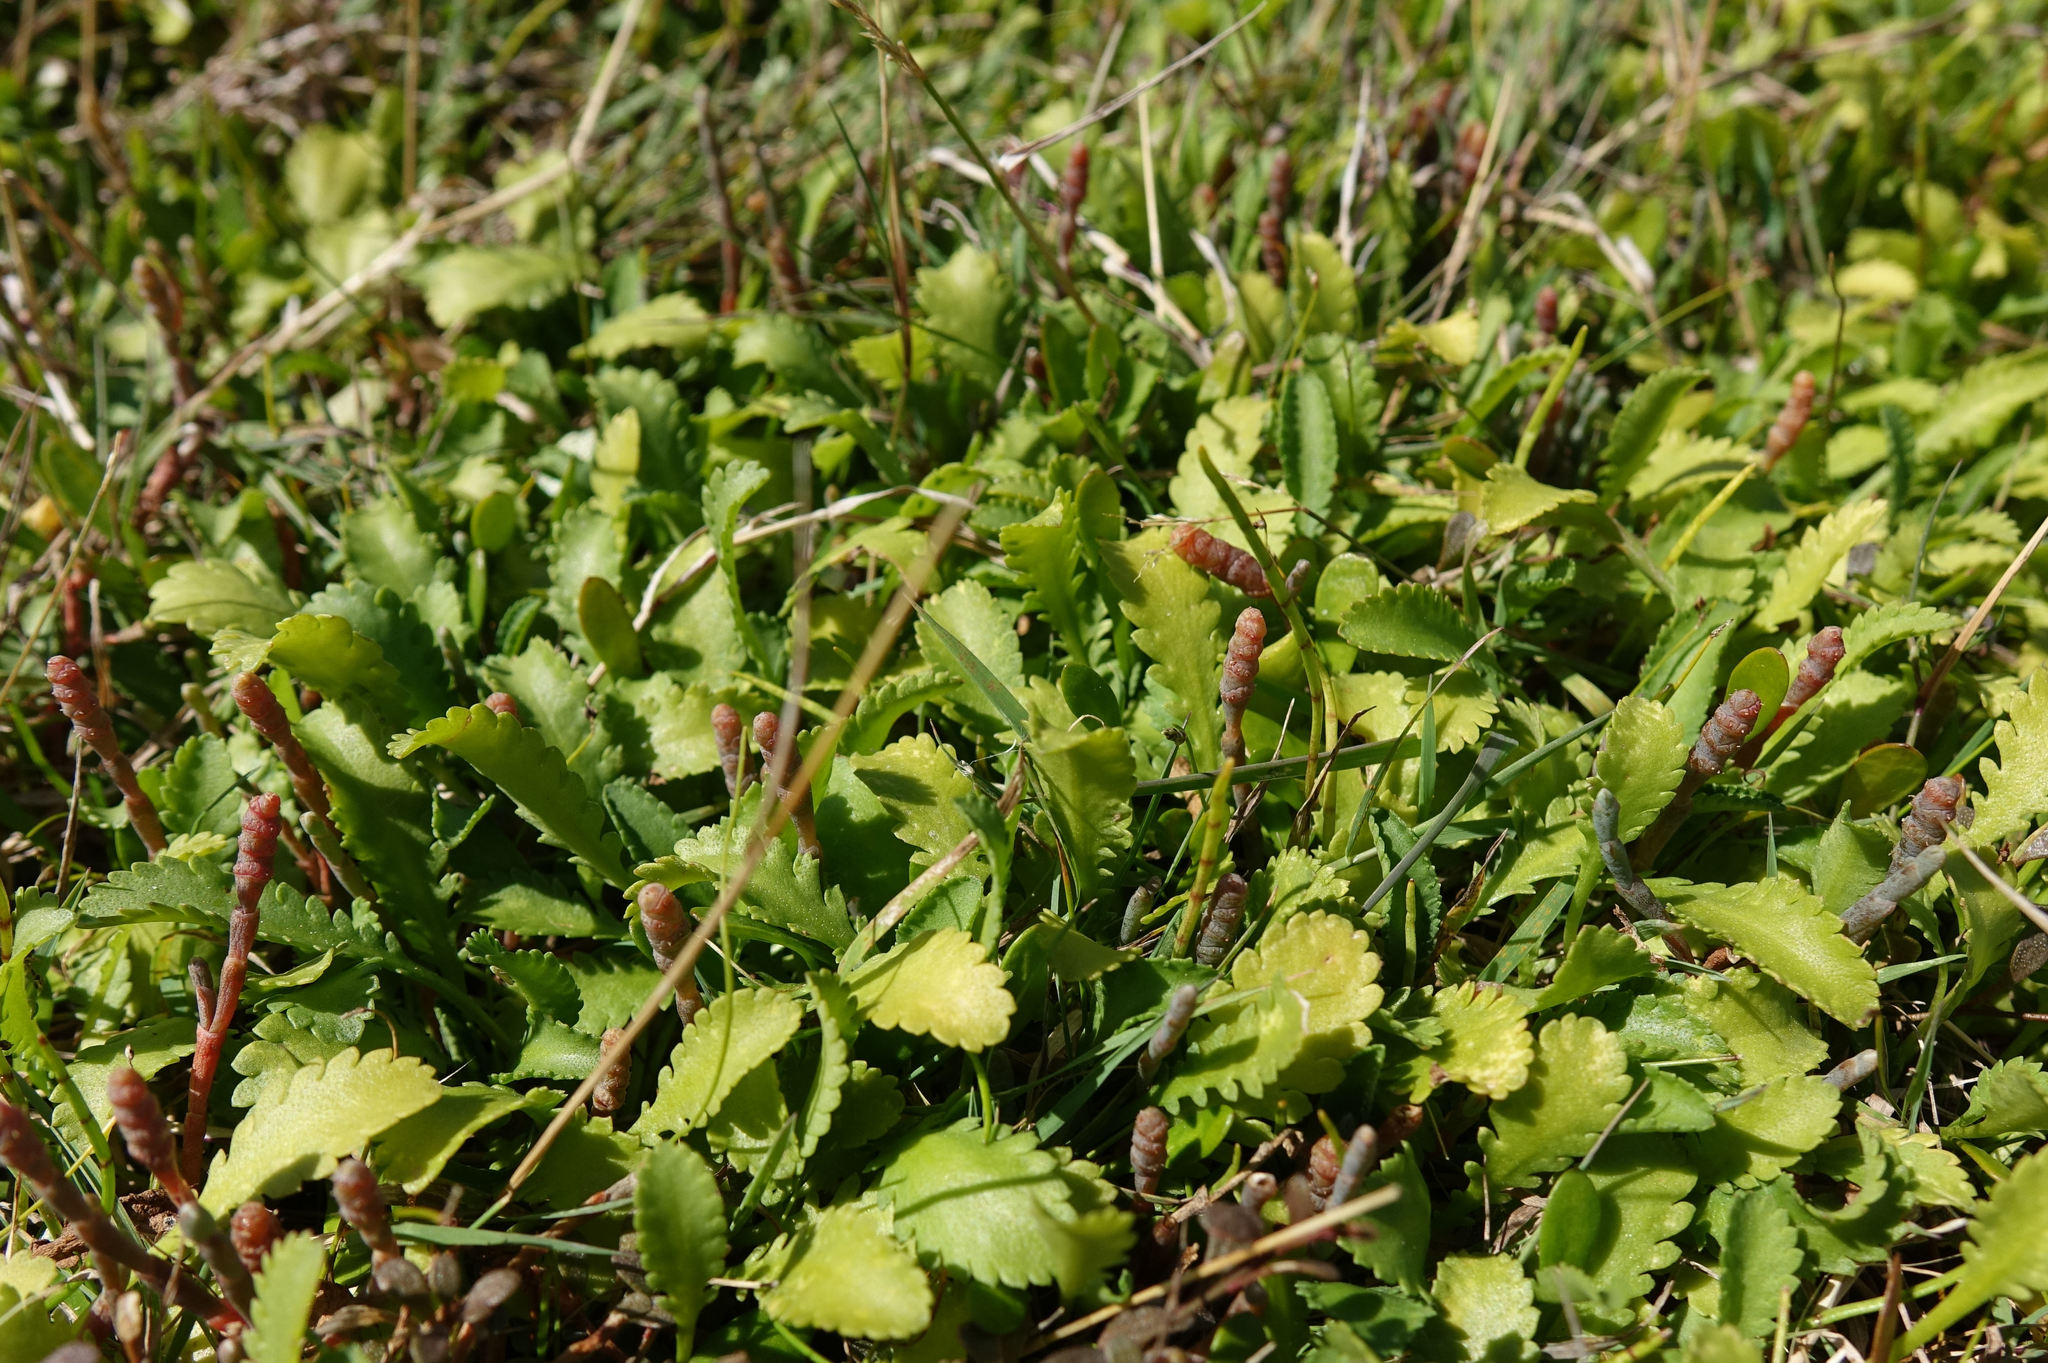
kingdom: Plantae
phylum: Tracheophyta
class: Magnoliopsida
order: Asterales
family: Asteraceae
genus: Leptinella
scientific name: Leptinella dioica
